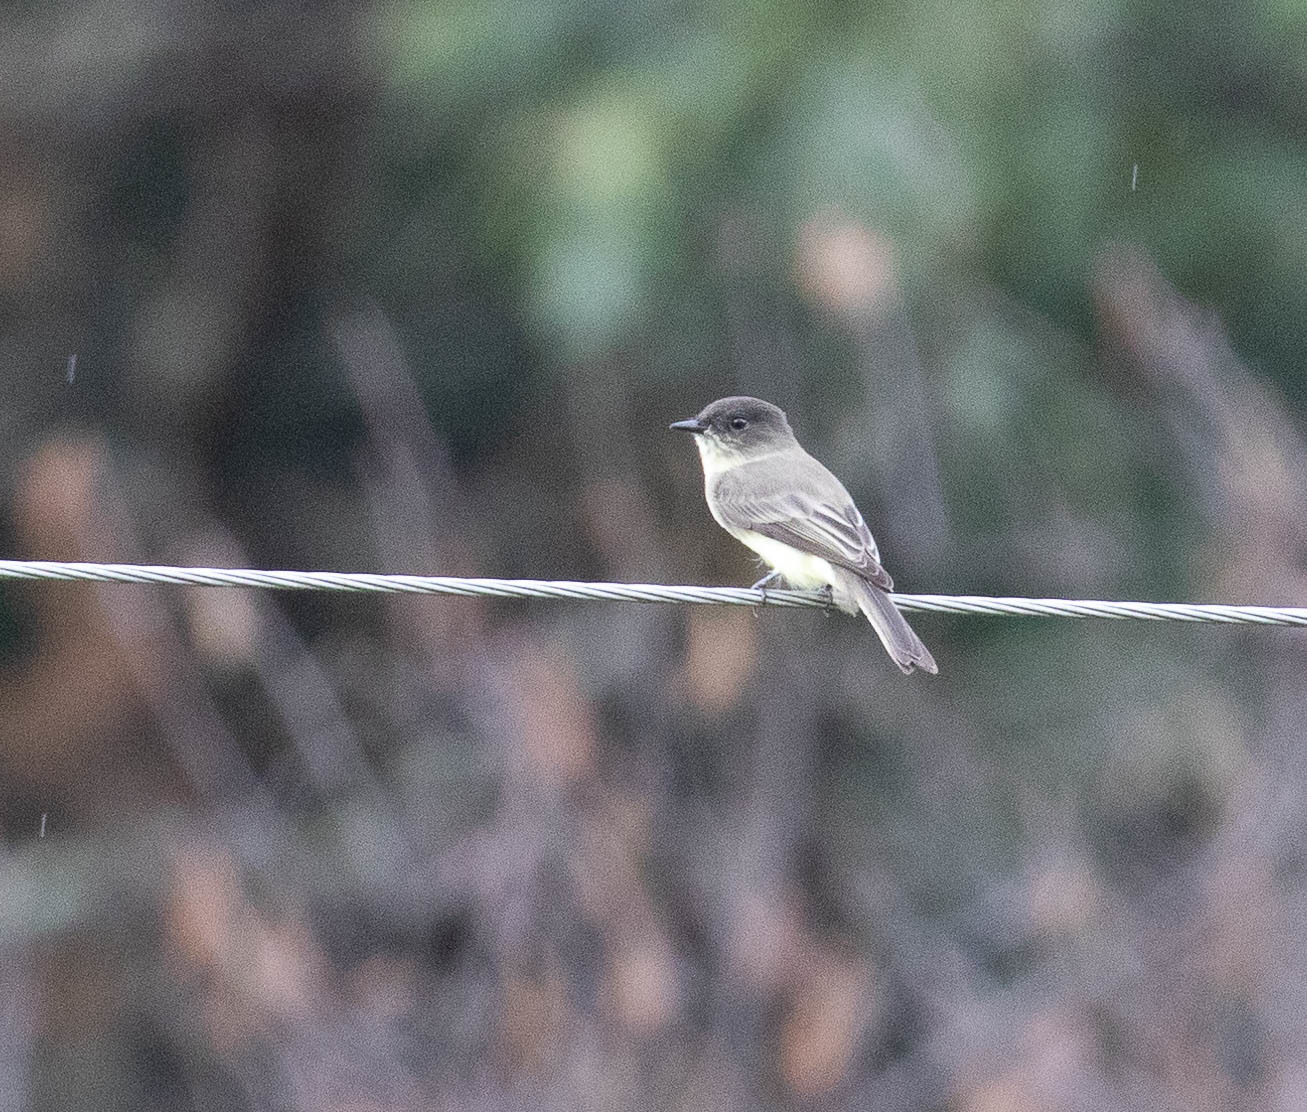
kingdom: Animalia
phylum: Chordata
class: Aves
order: Passeriformes
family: Tyrannidae
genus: Sayornis
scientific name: Sayornis phoebe
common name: Eastern phoebe
